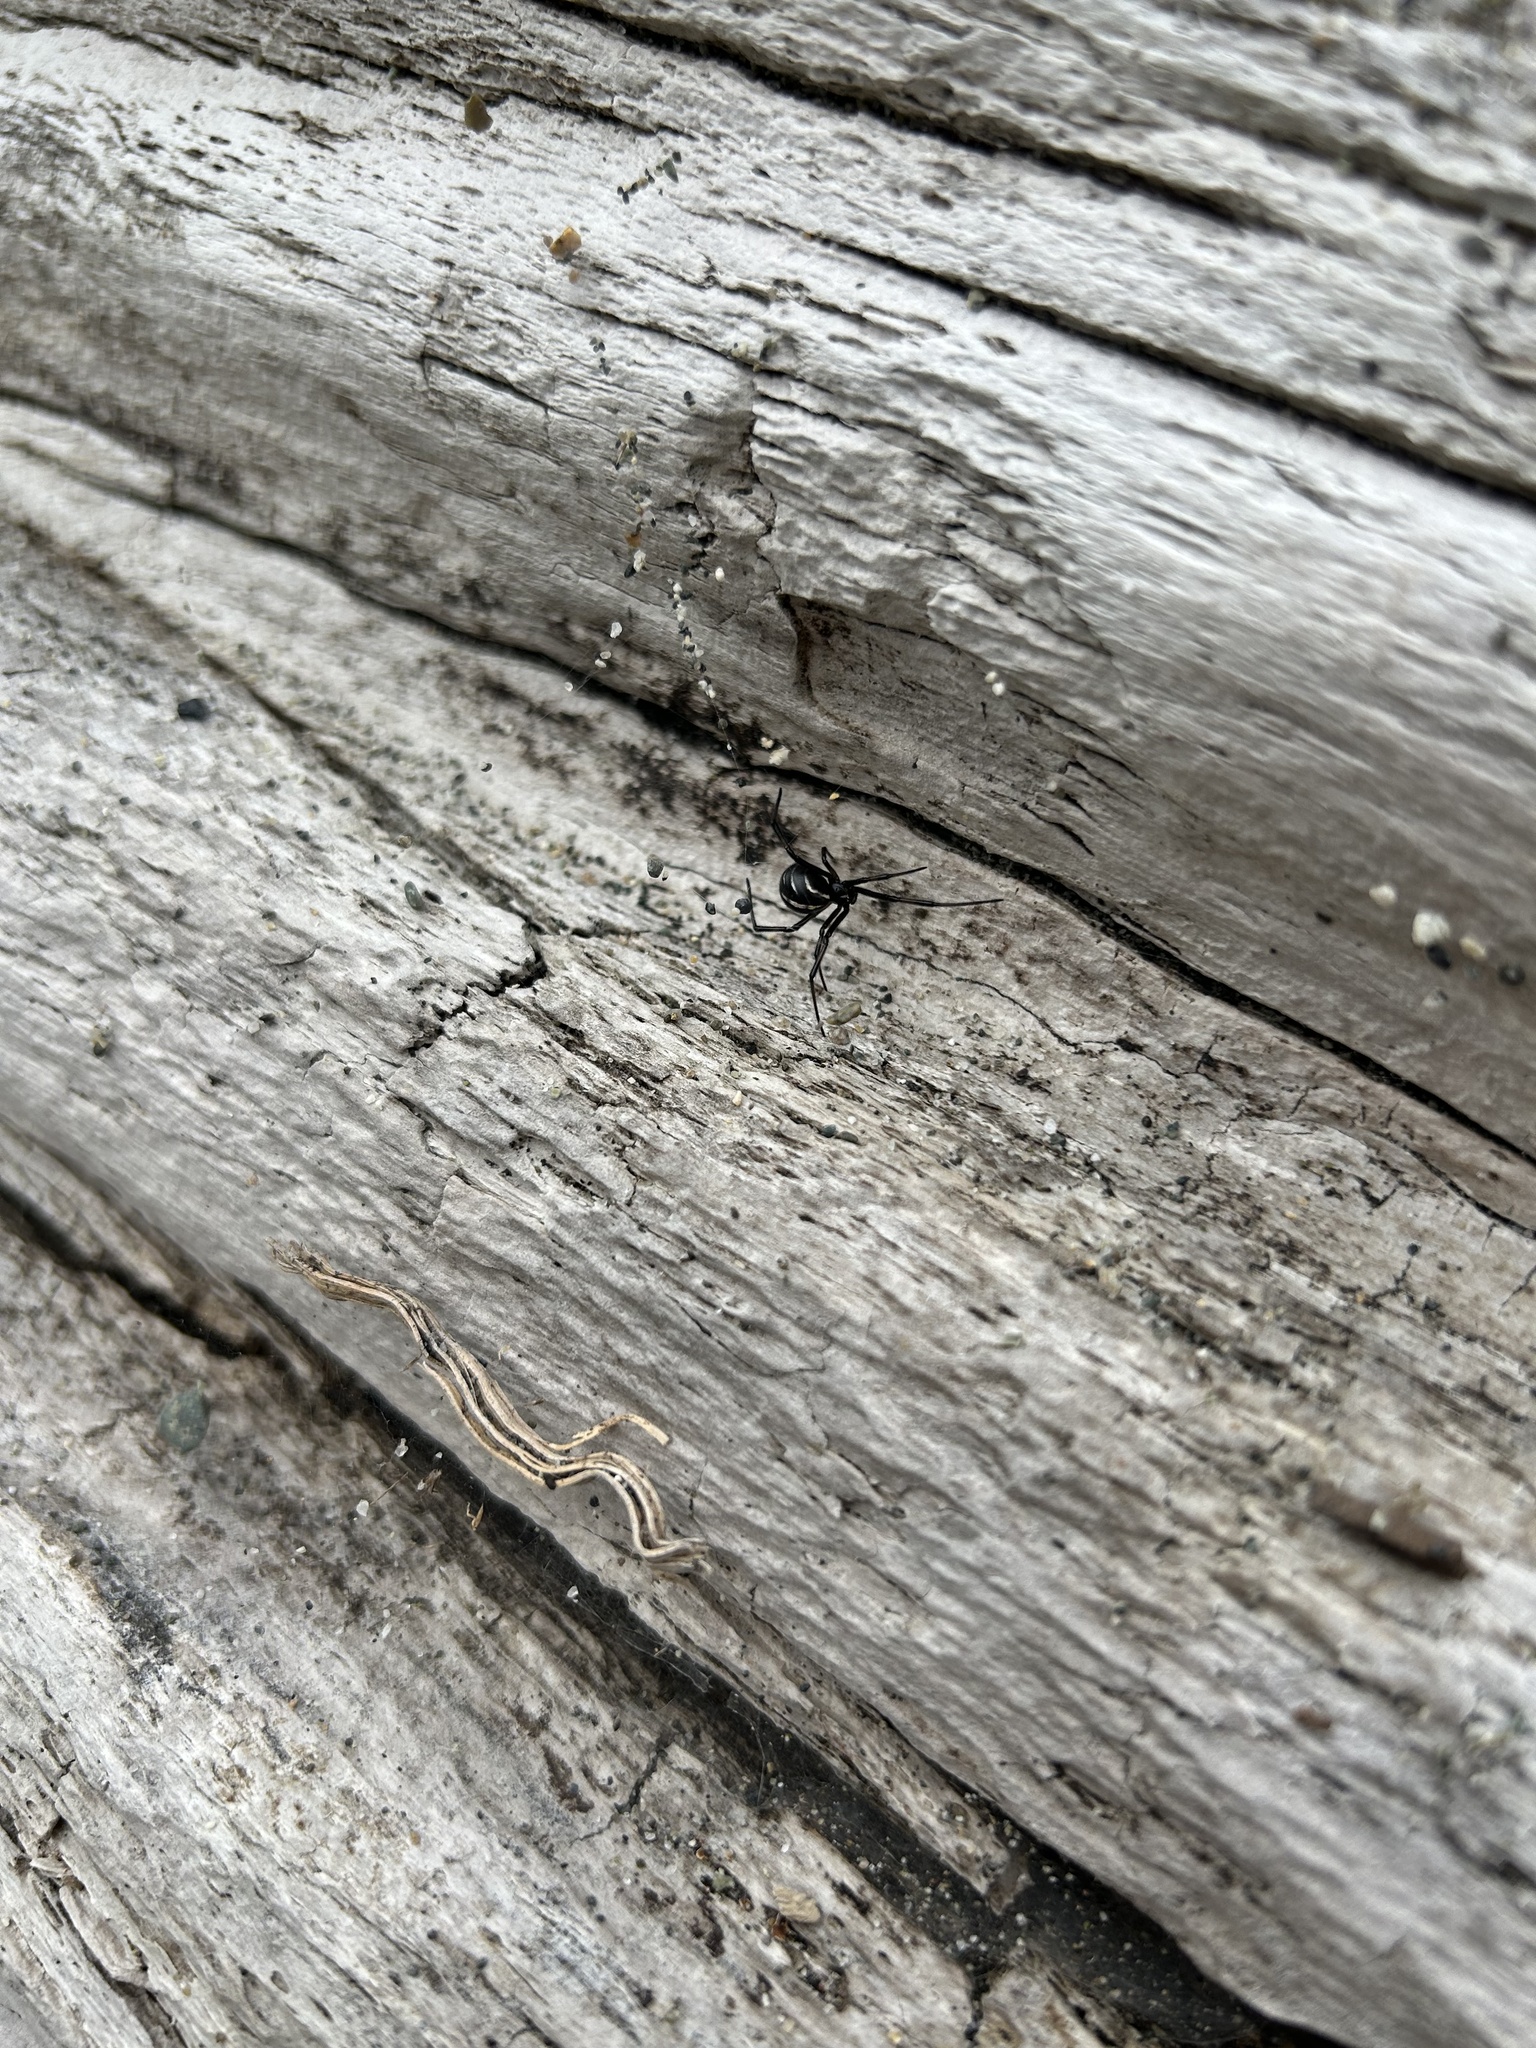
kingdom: Animalia
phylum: Arthropoda
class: Arachnida
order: Araneae
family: Theridiidae
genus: Latrodectus
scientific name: Latrodectus hesperus
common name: Western black widow
